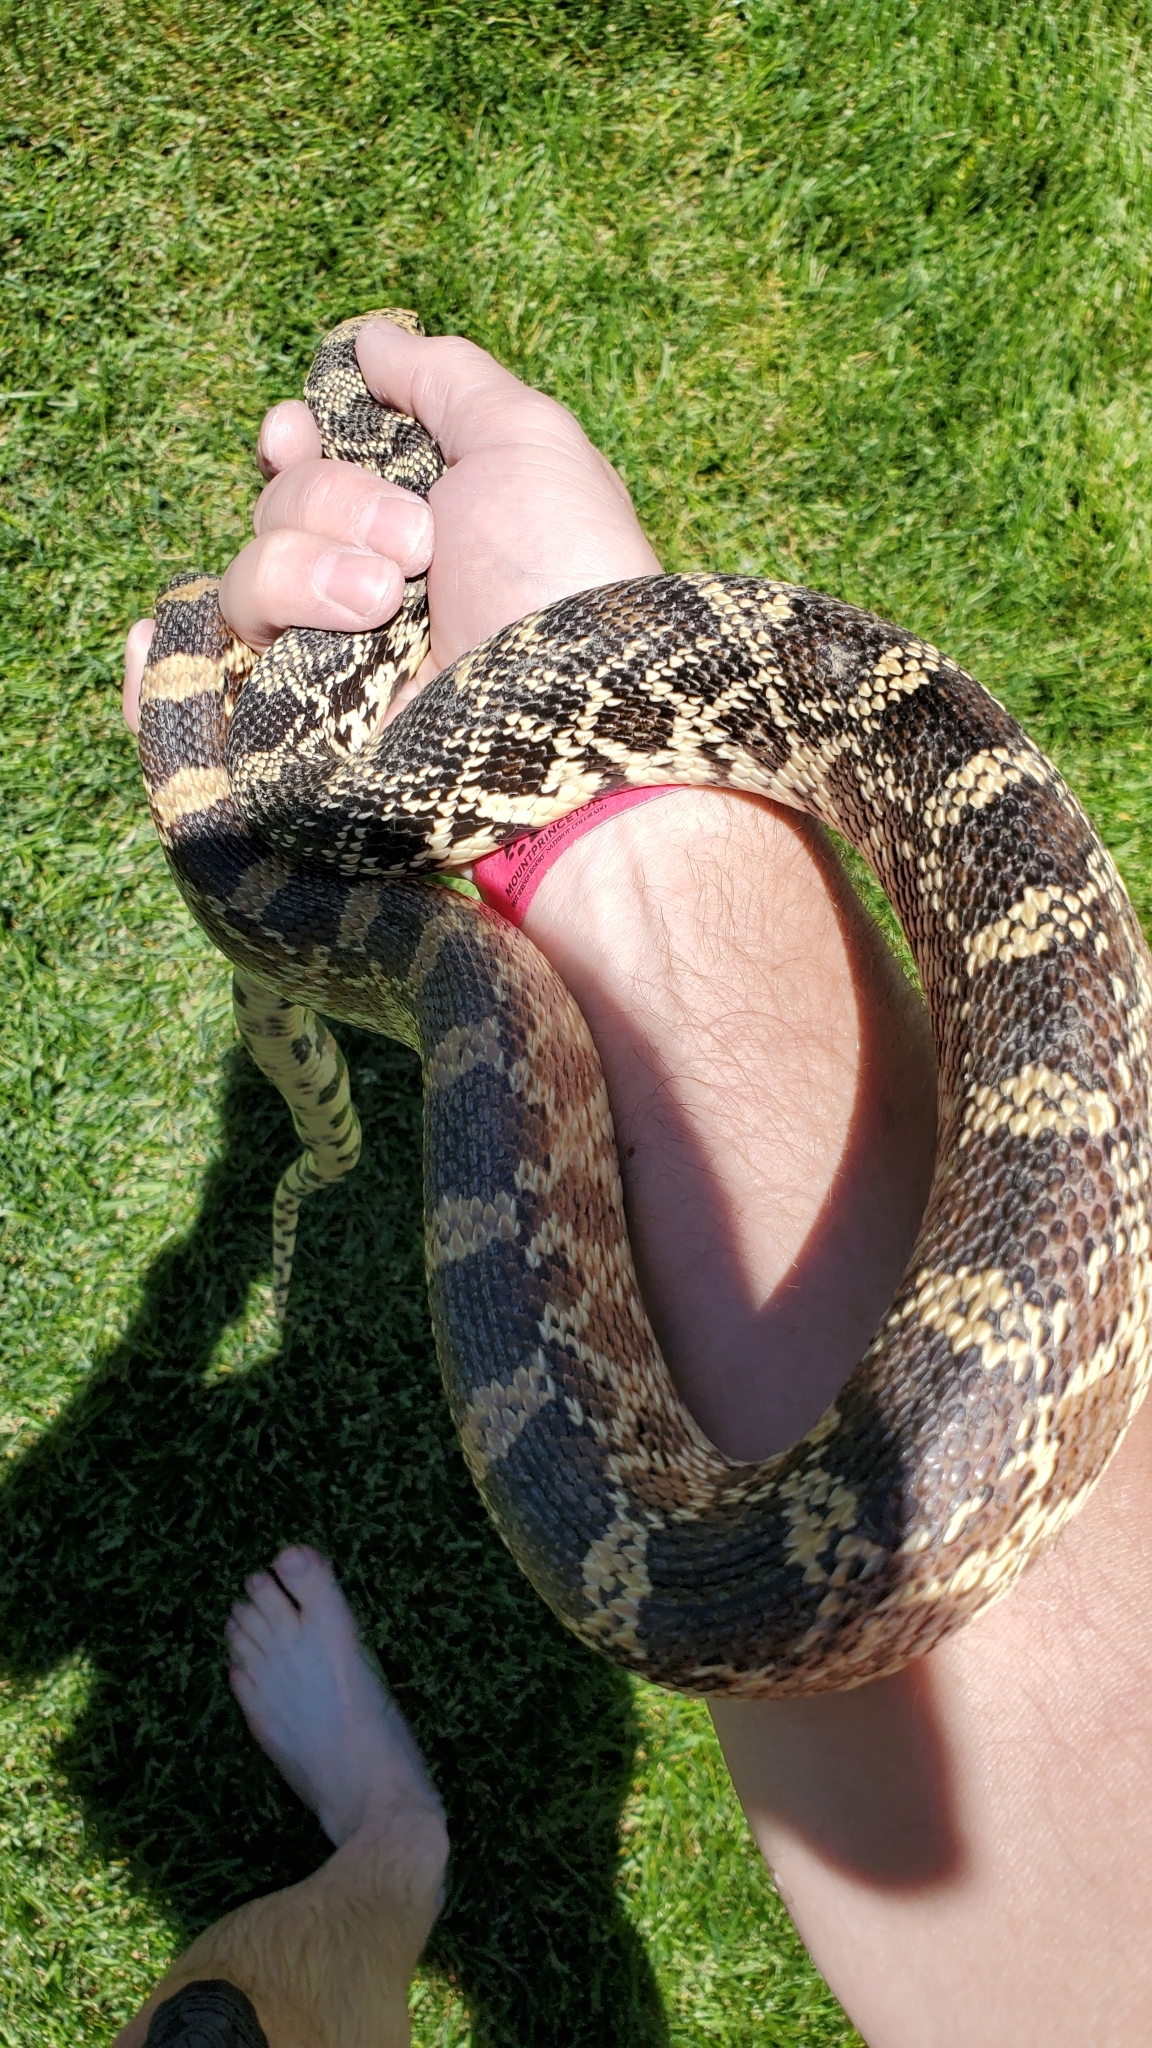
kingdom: Animalia
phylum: Chordata
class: Squamata
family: Colubridae
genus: Pituophis
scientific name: Pituophis catenifer
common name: Gopher snake
